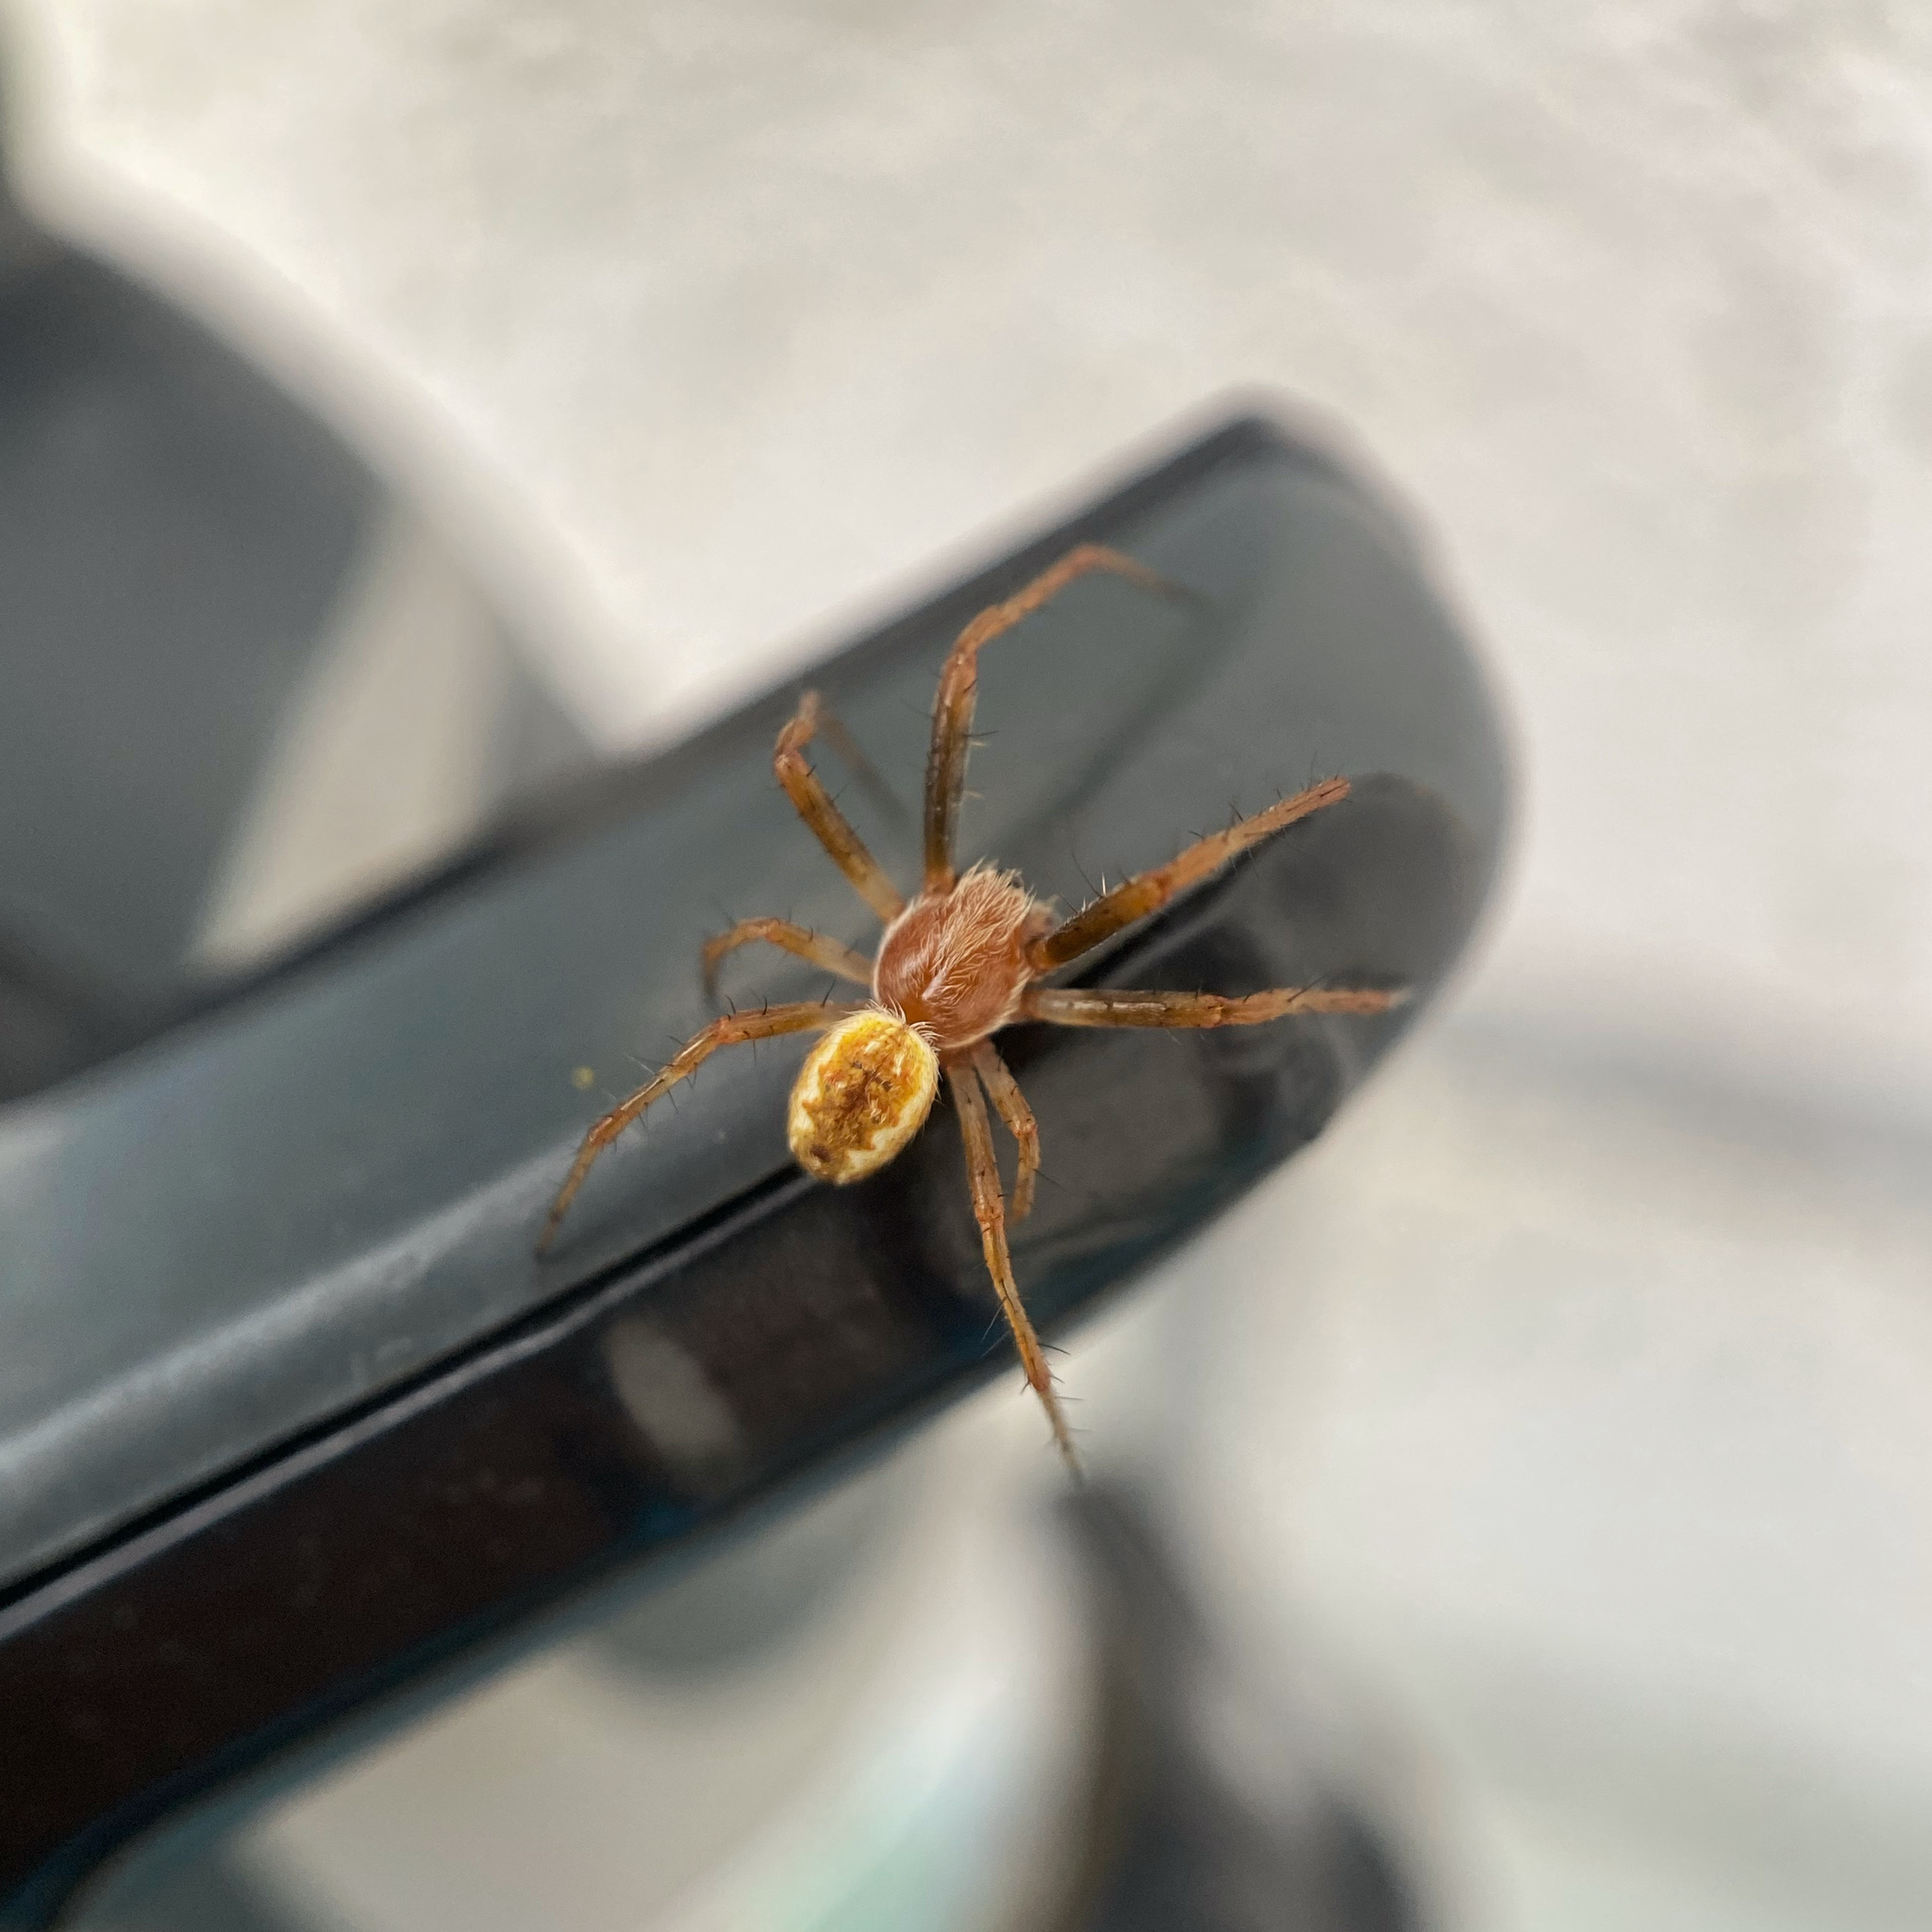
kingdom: Animalia
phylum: Arthropoda
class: Arachnida
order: Araneae
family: Araneidae
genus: Salsa
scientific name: Salsa fuliginata
